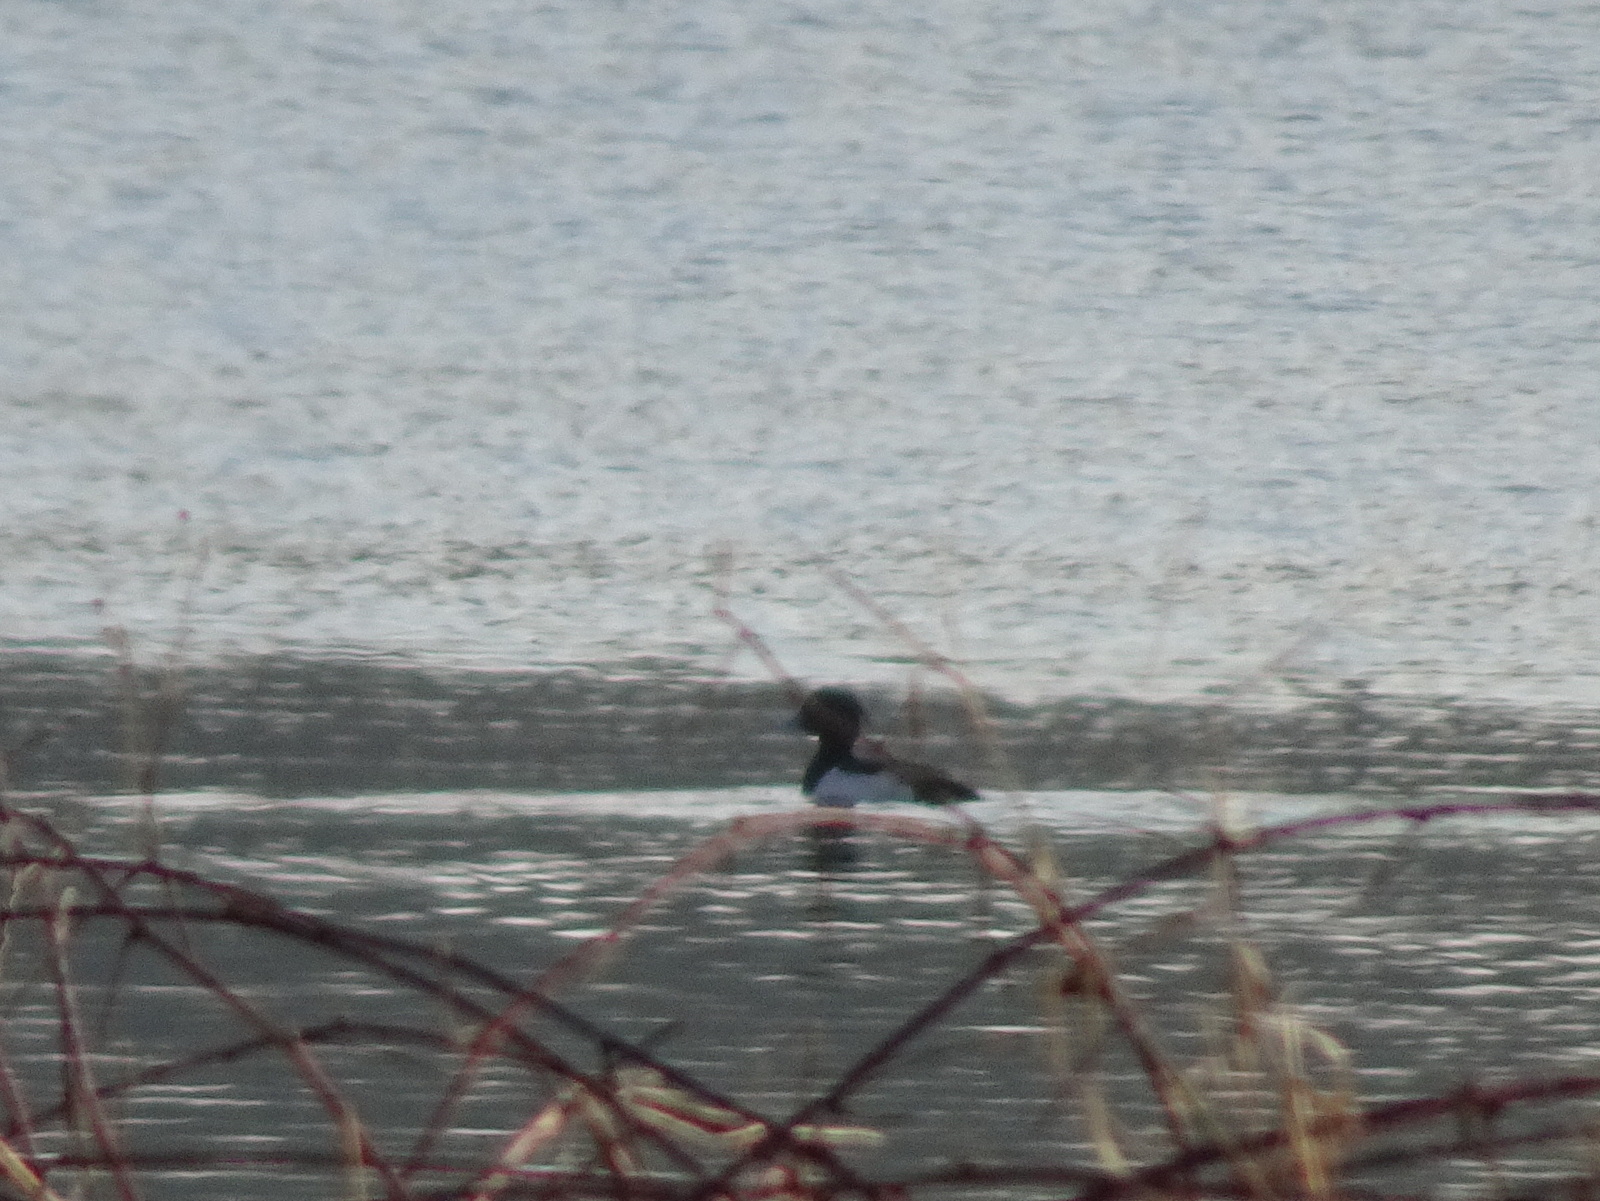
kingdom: Animalia
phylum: Chordata
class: Aves
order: Anseriformes
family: Anatidae
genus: Aythya
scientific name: Aythya fuligula
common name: Tufted duck
